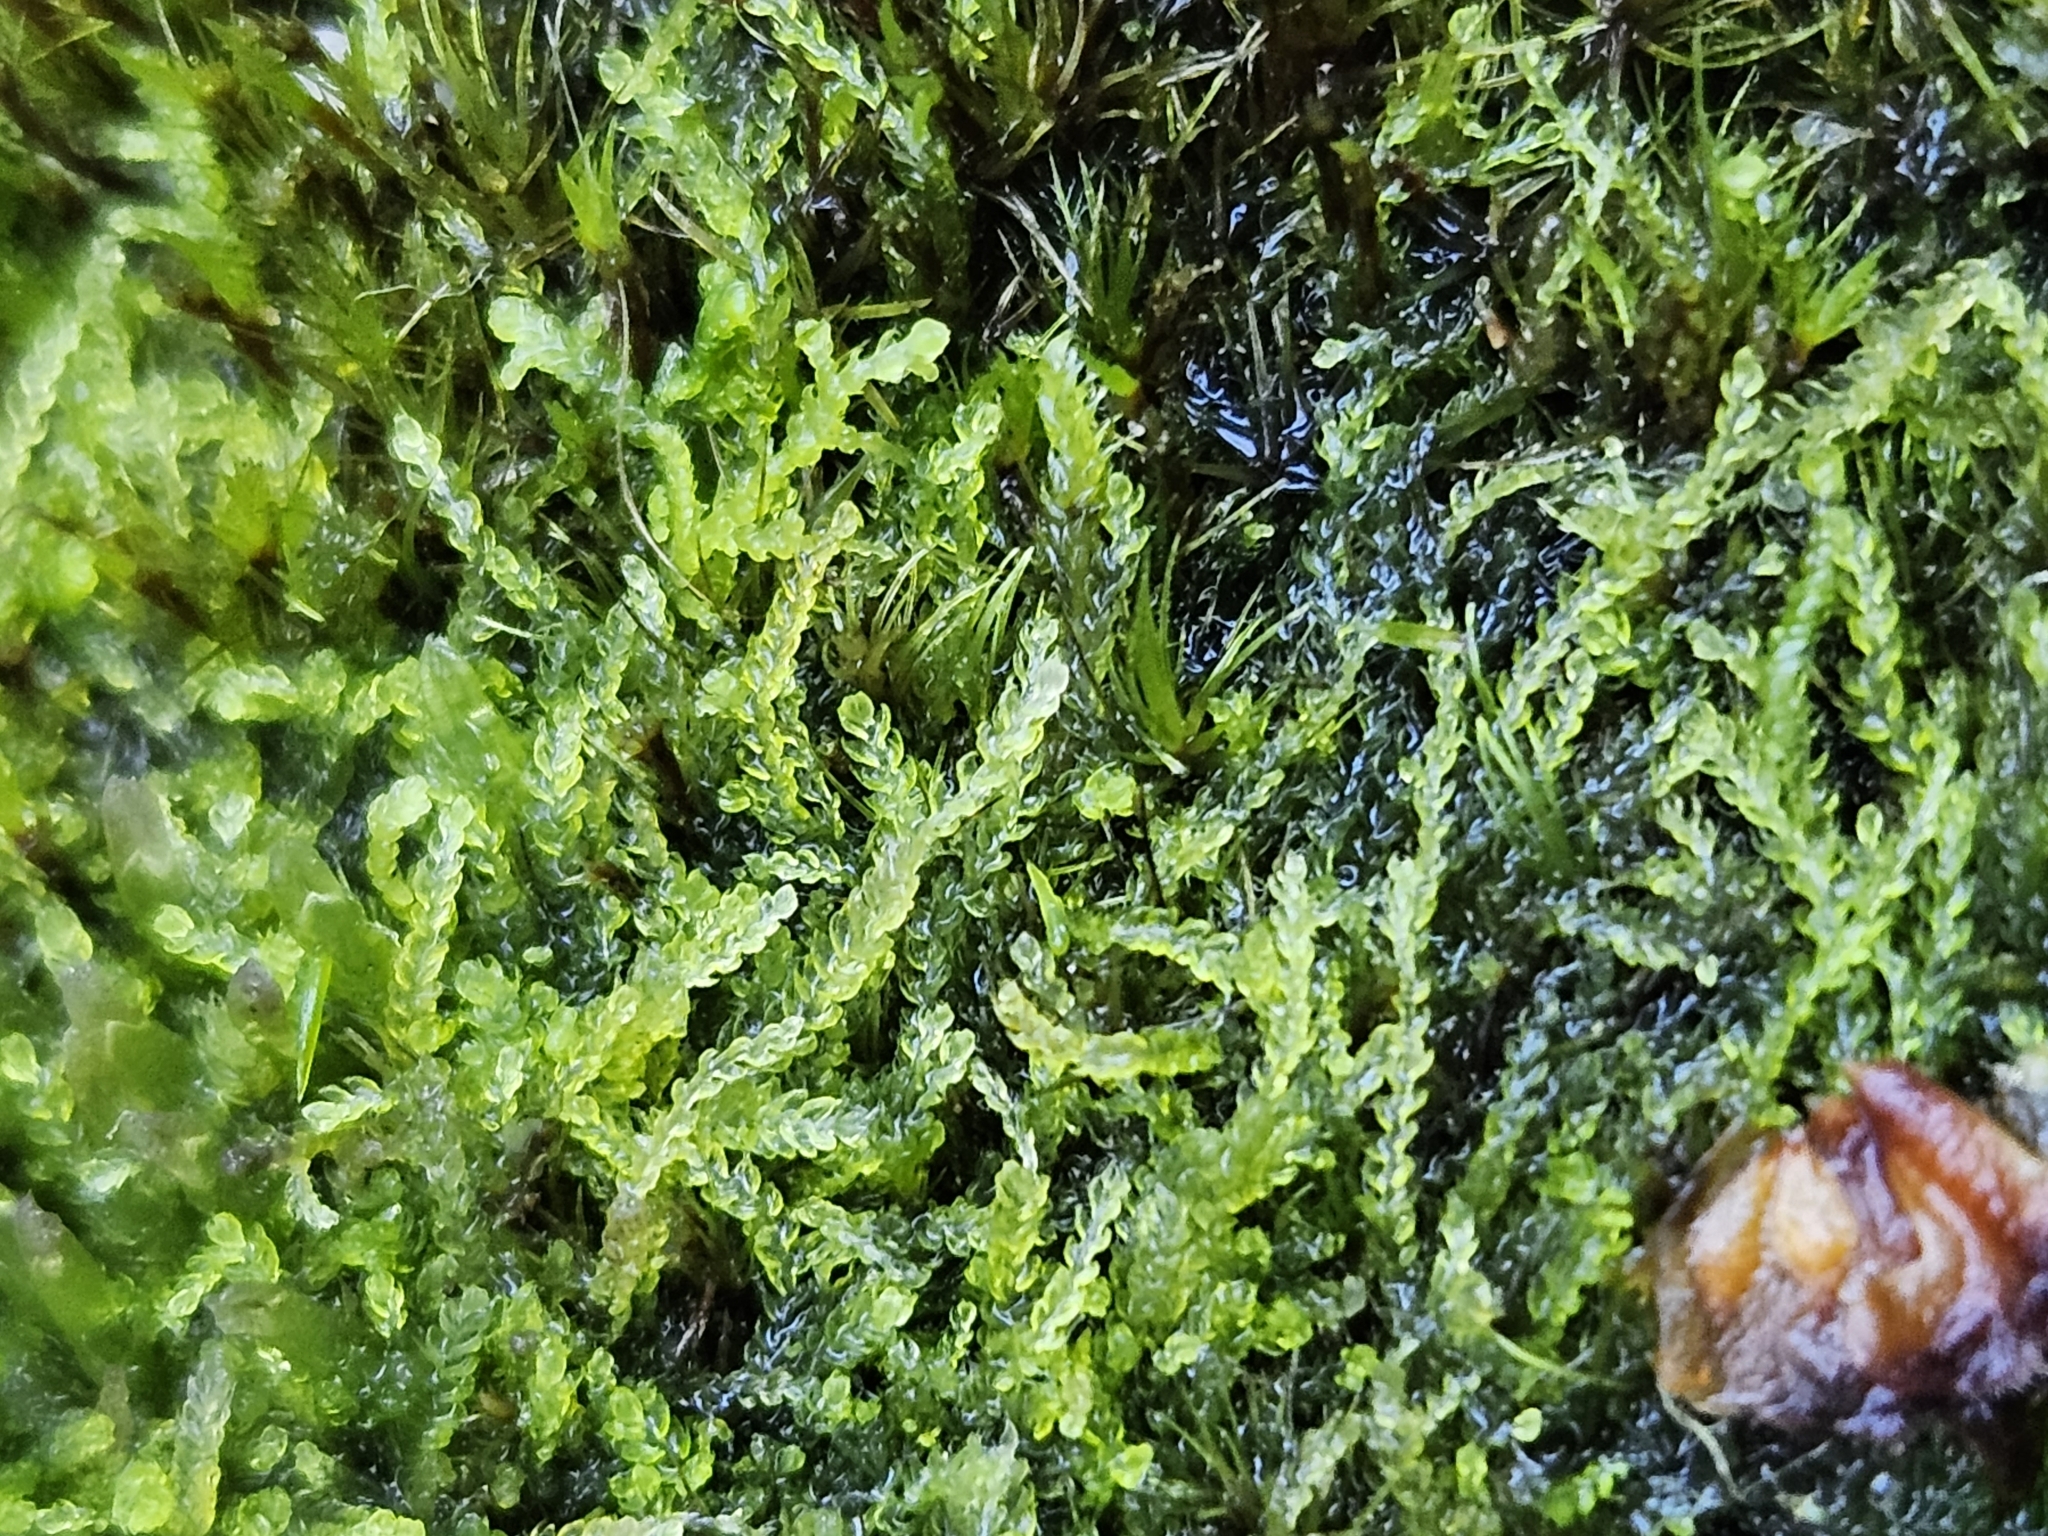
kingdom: Plantae
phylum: Marchantiophyta
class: Jungermanniopsida
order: Jungermanniales
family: Cephaloziellaceae
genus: Cephaloziella
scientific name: Cephaloziella divaricata
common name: Spreading threadwort
